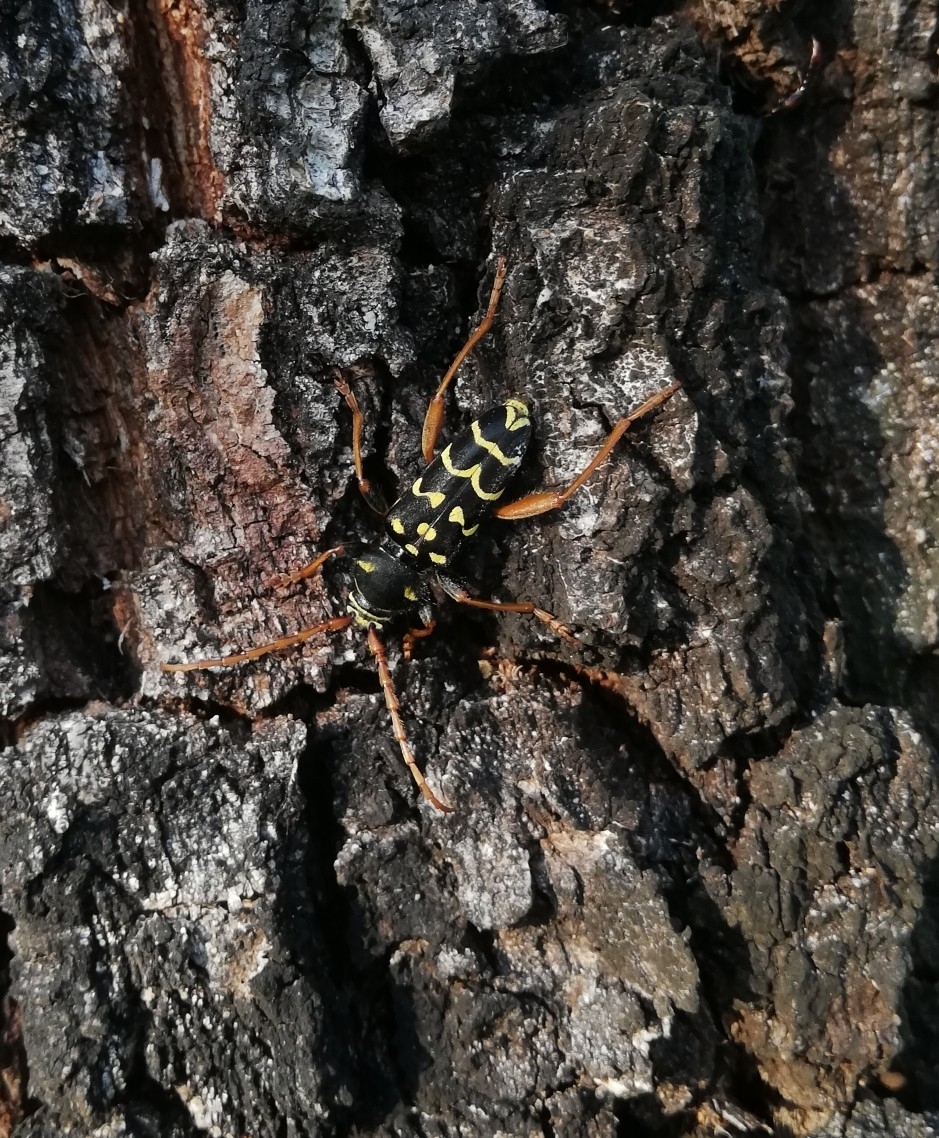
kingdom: Animalia
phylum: Arthropoda
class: Insecta
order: Coleoptera
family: Cerambycidae
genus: Plagionotus
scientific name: Plagionotus arcuatus
